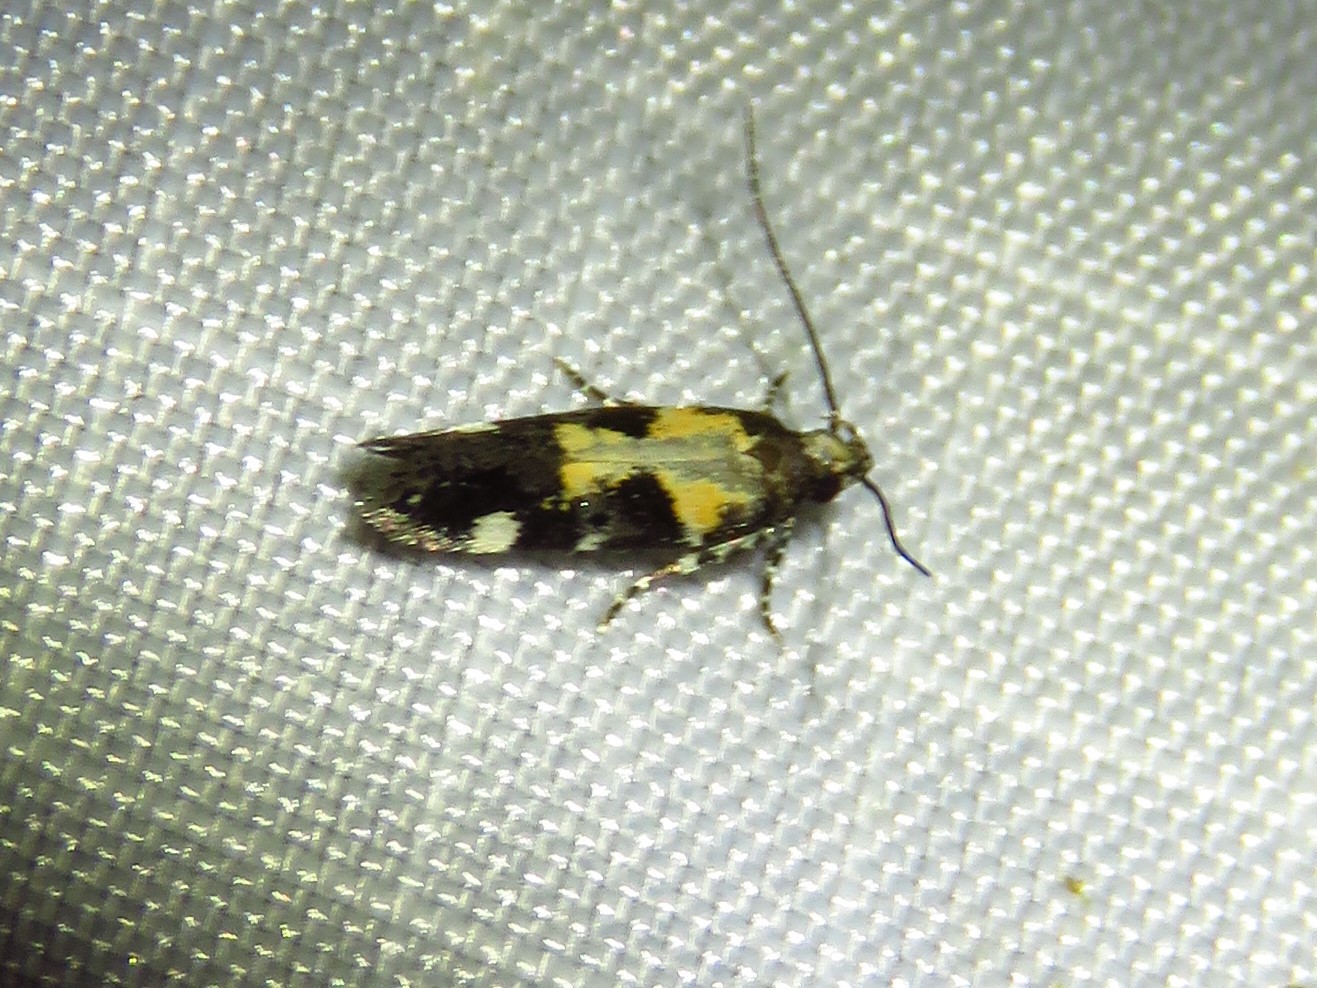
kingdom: Animalia
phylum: Arthropoda
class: Insecta
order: Lepidoptera
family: Gelechiidae
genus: Stegasta
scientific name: Stegasta bosqueella
